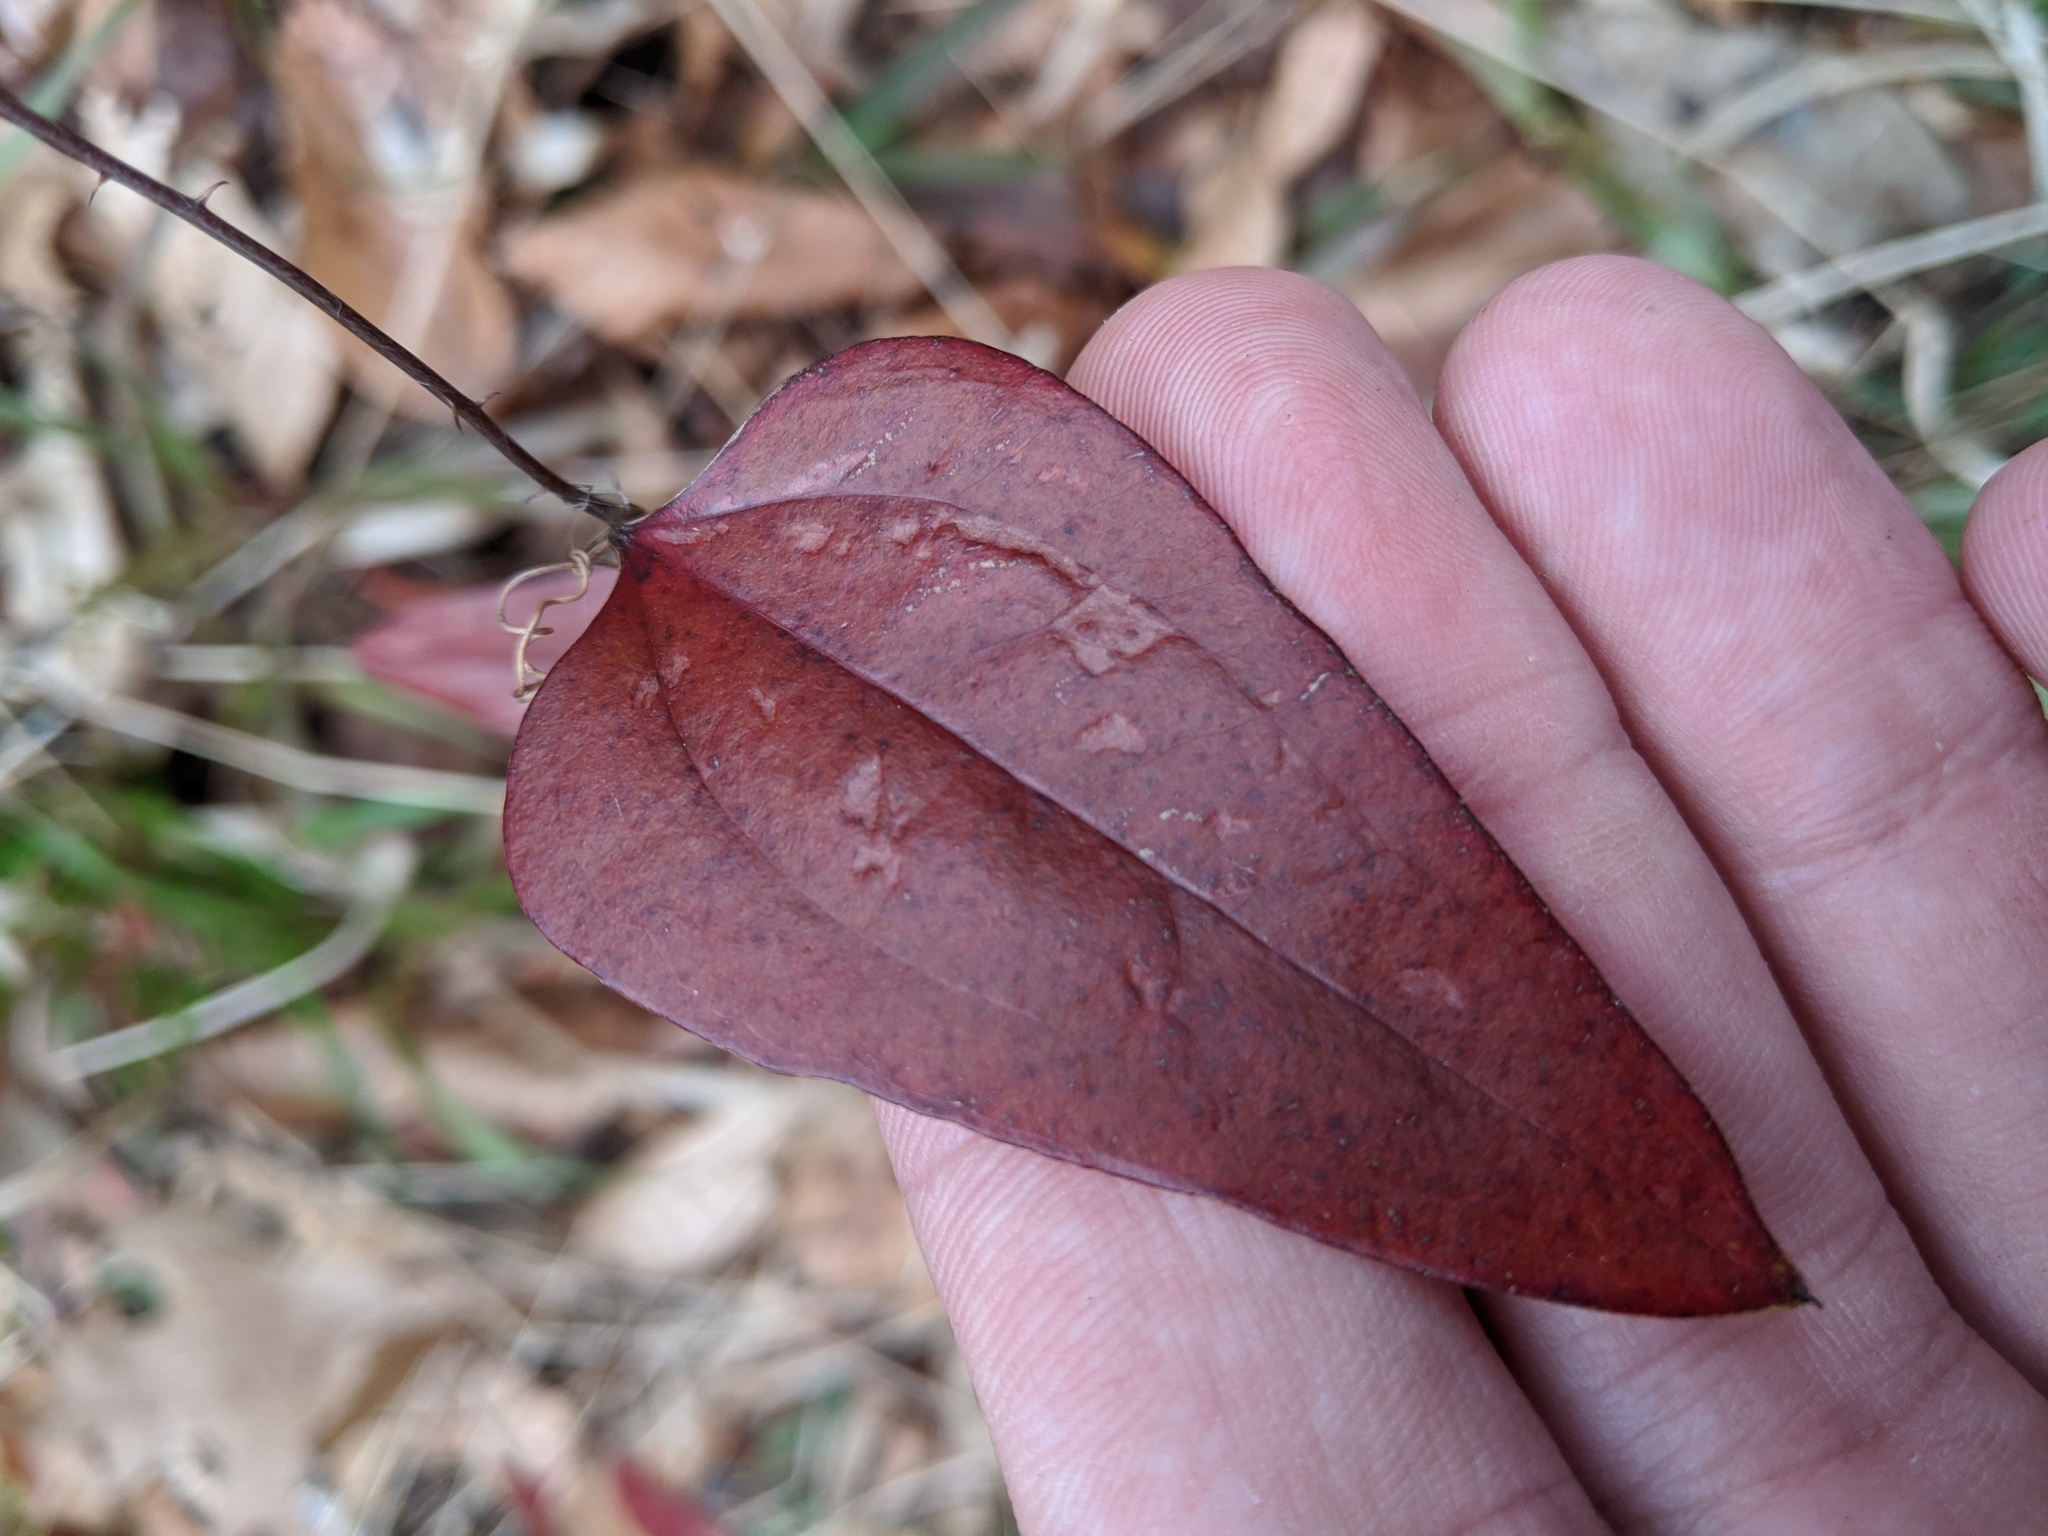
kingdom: Plantae
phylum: Tracheophyta
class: Liliopsida
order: Liliales
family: Smilacaceae
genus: Smilax
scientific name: Smilax glauca
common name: Cat greenbrier
